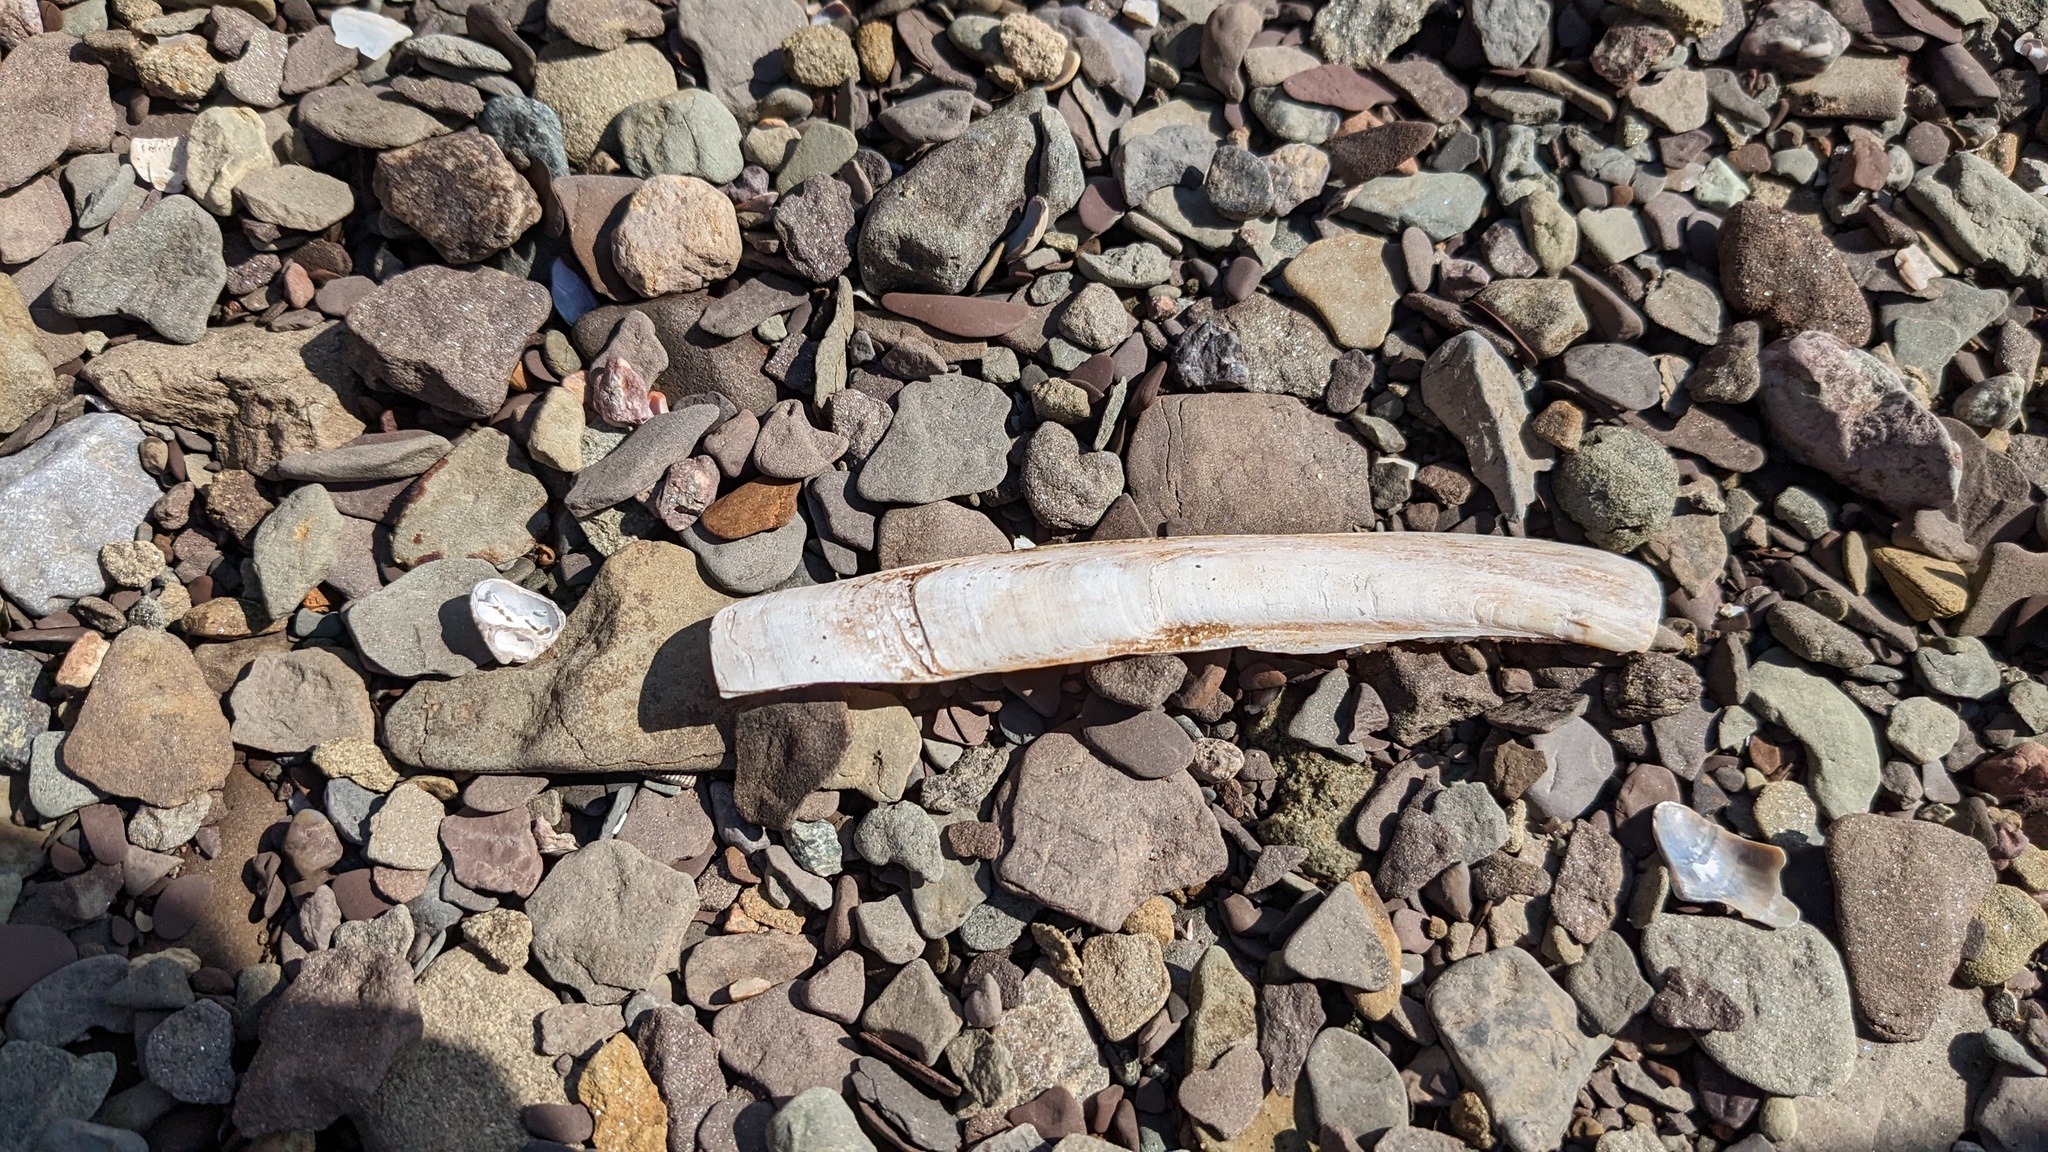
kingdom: Animalia
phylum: Mollusca
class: Bivalvia
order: Adapedonta
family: Pharidae
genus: Ensis
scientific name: Ensis leei
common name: American jack knife clam
